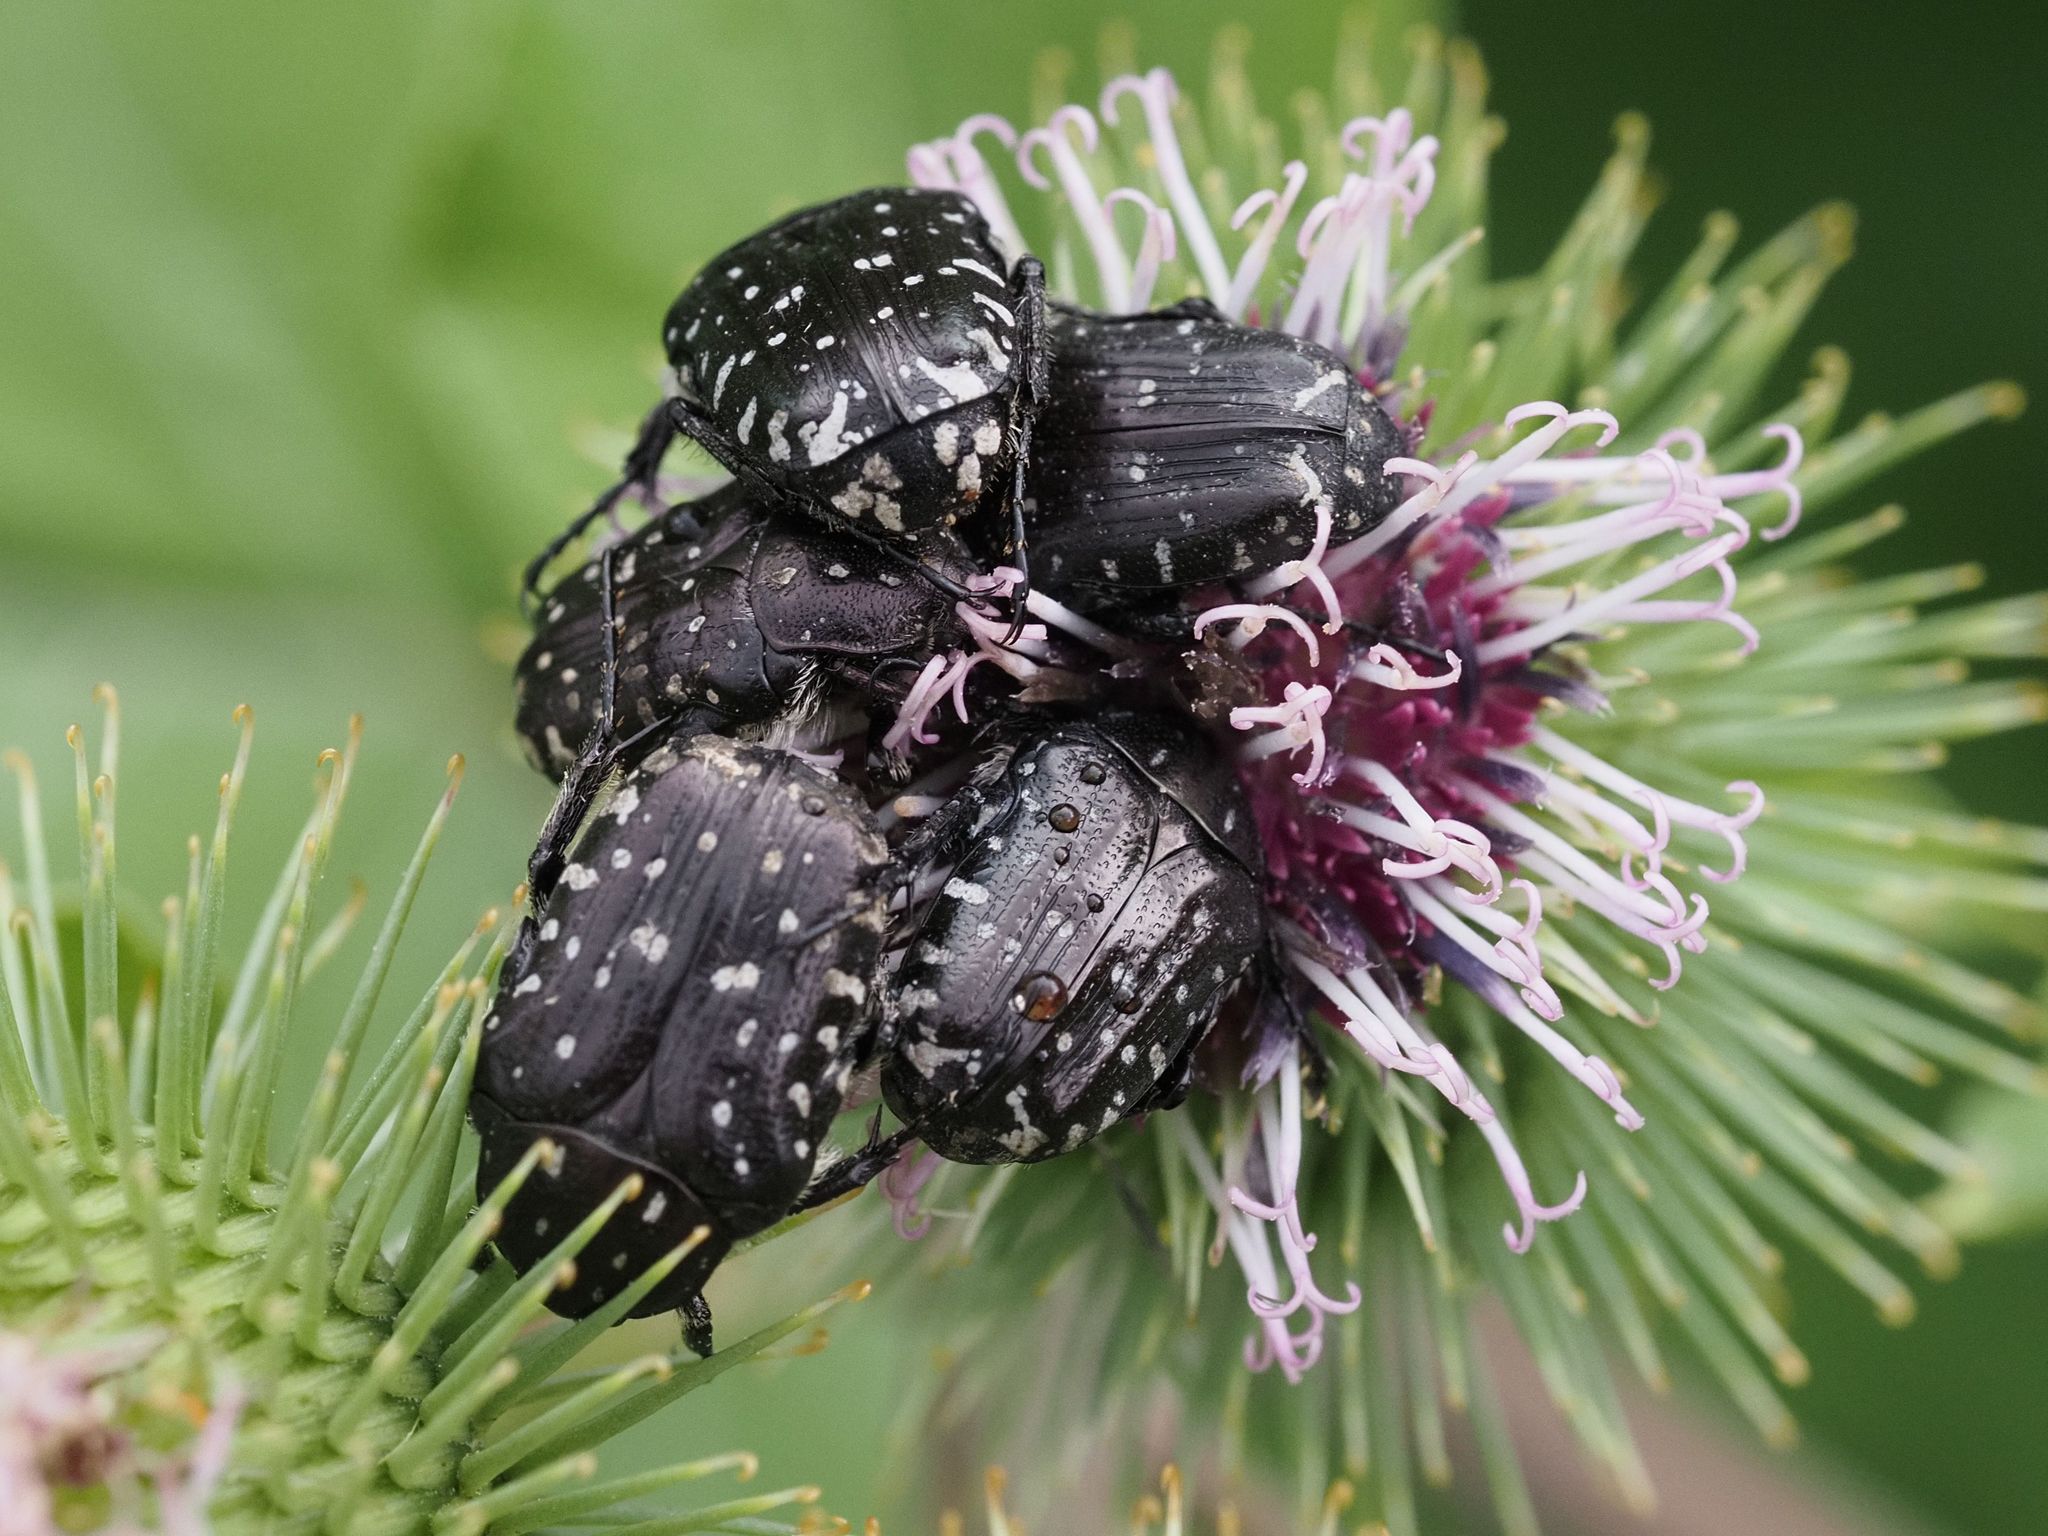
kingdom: Animalia
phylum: Arthropoda
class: Insecta
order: Coleoptera
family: Scarabaeidae
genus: Oxythyrea
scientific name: Oxythyrea funesta
